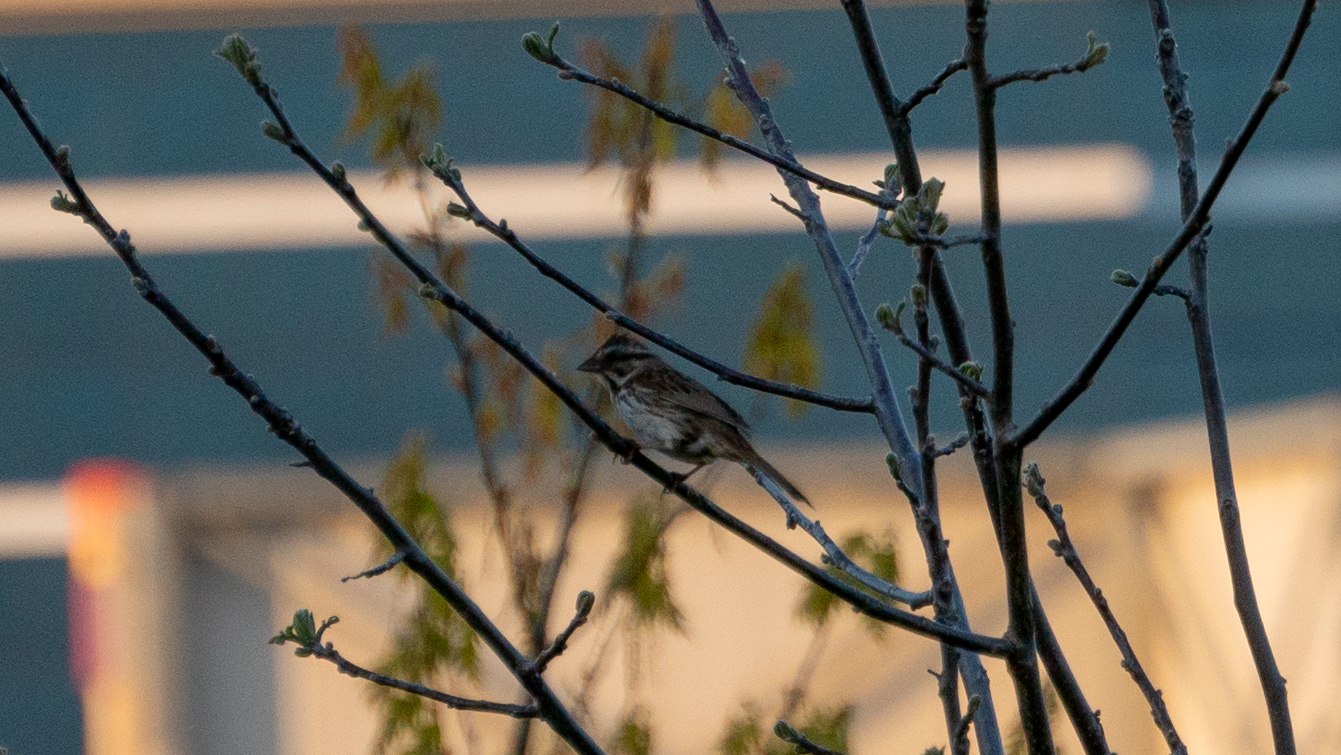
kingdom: Animalia
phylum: Chordata
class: Aves
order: Passeriformes
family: Passerellidae
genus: Melospiza
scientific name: Melospiza melodia
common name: Song sparrow
